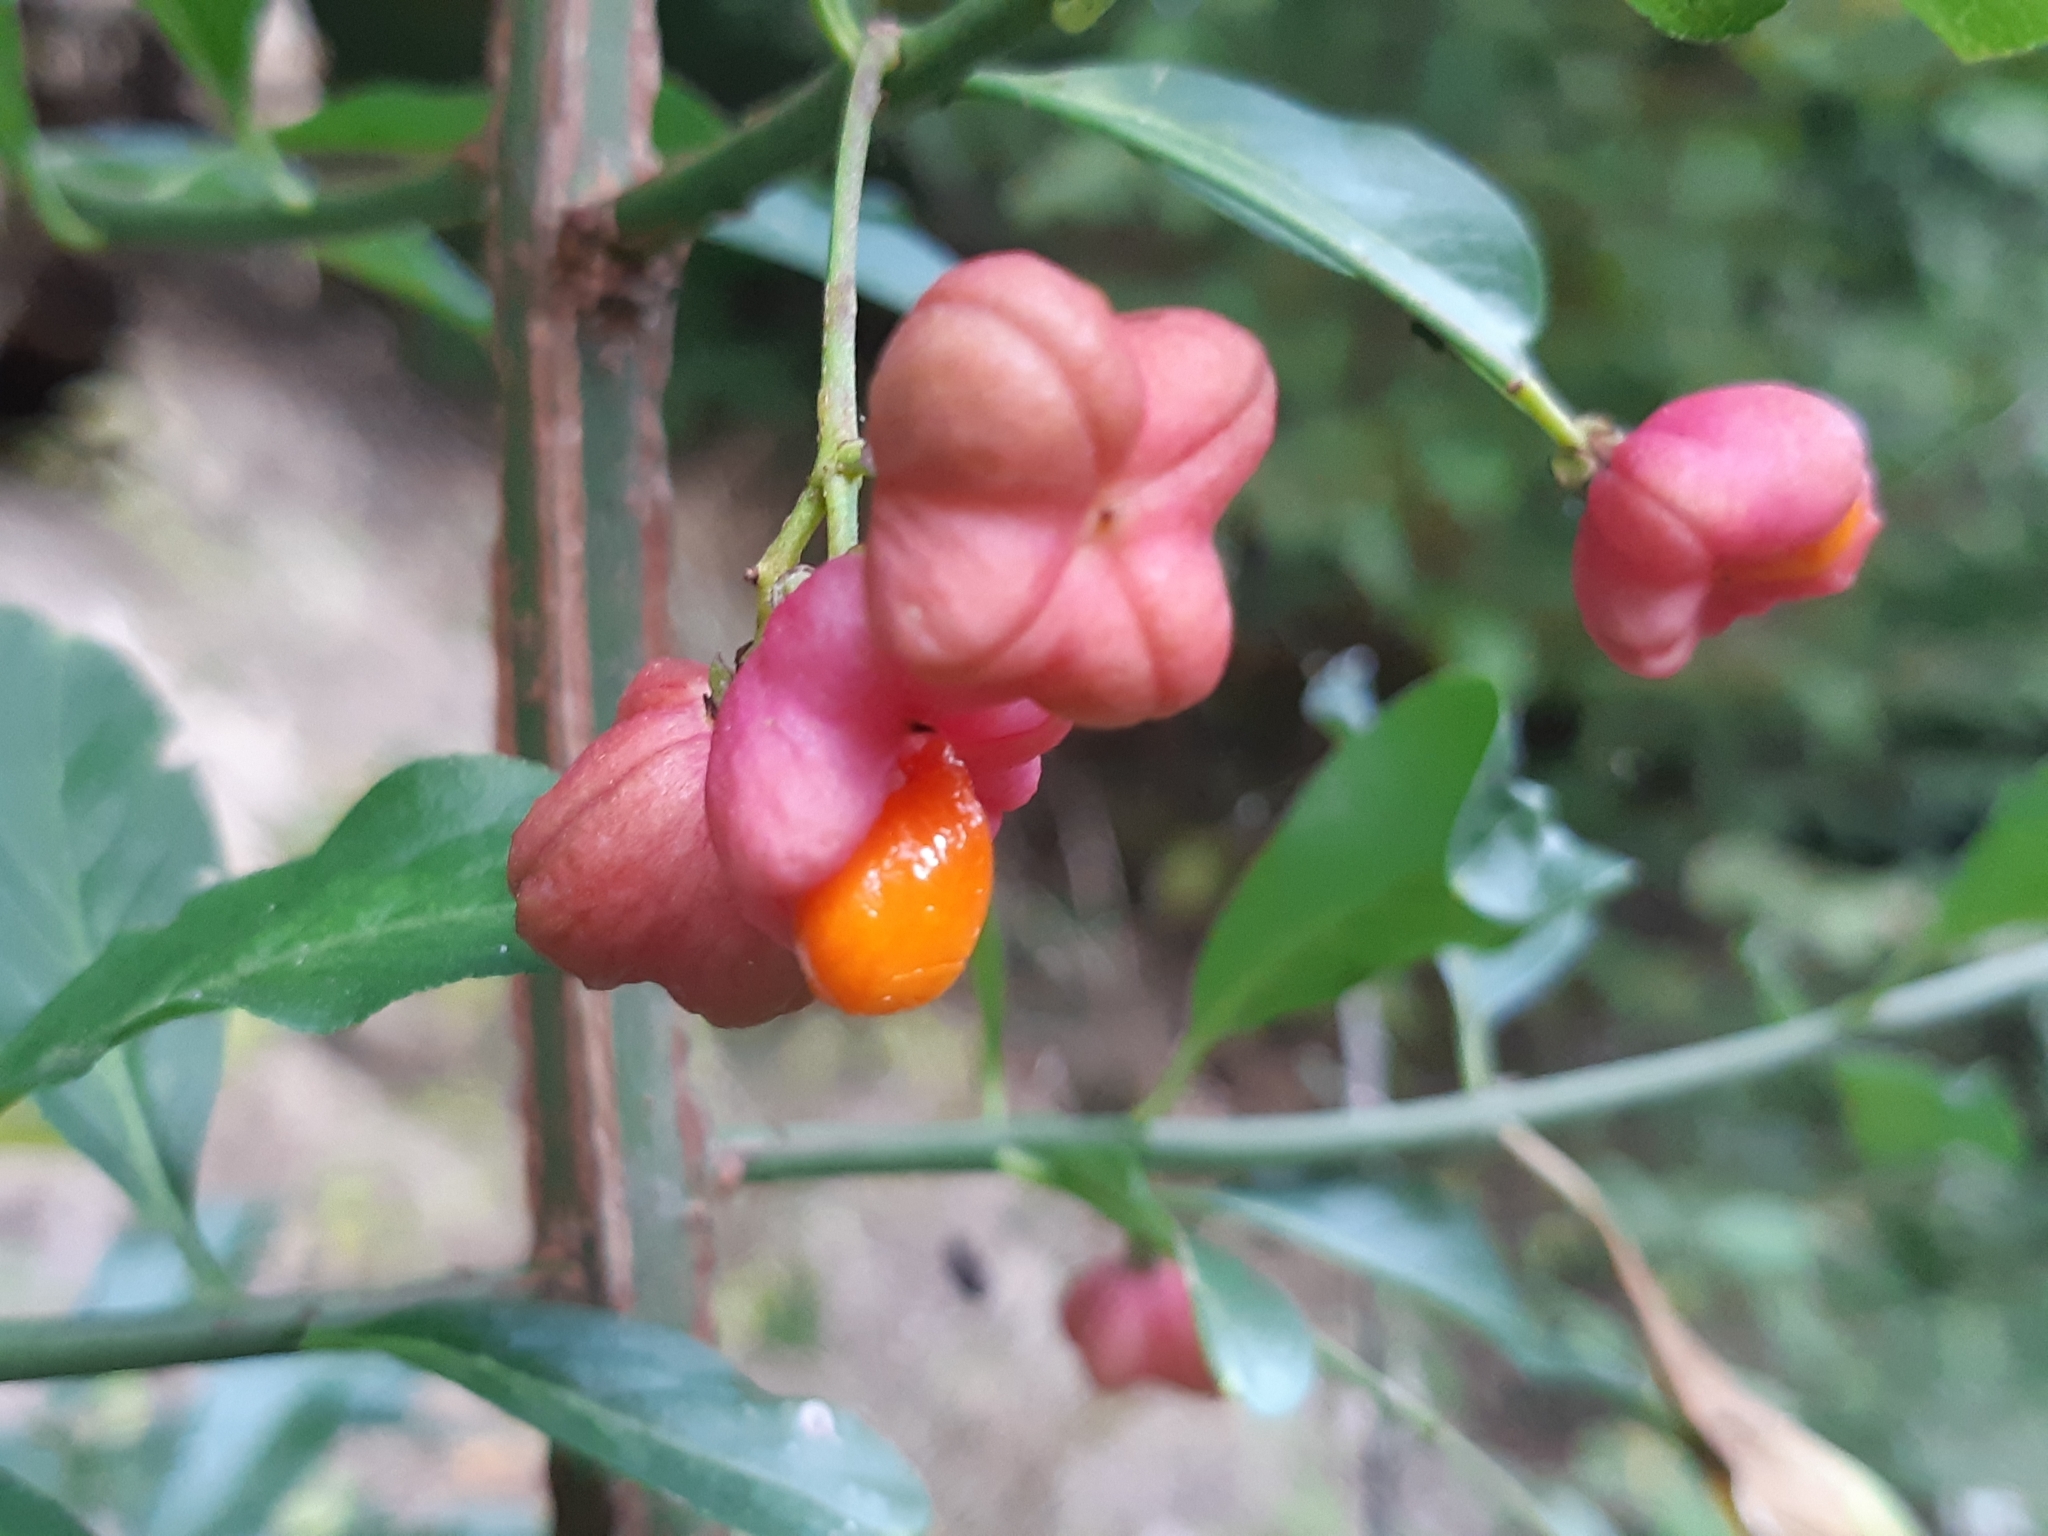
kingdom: Plantae
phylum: Tracheophyta
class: Magnoliopsida
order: Celastrales
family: Celastraceae
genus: Euonymus
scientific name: Euonymus europaeus
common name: Spindle
